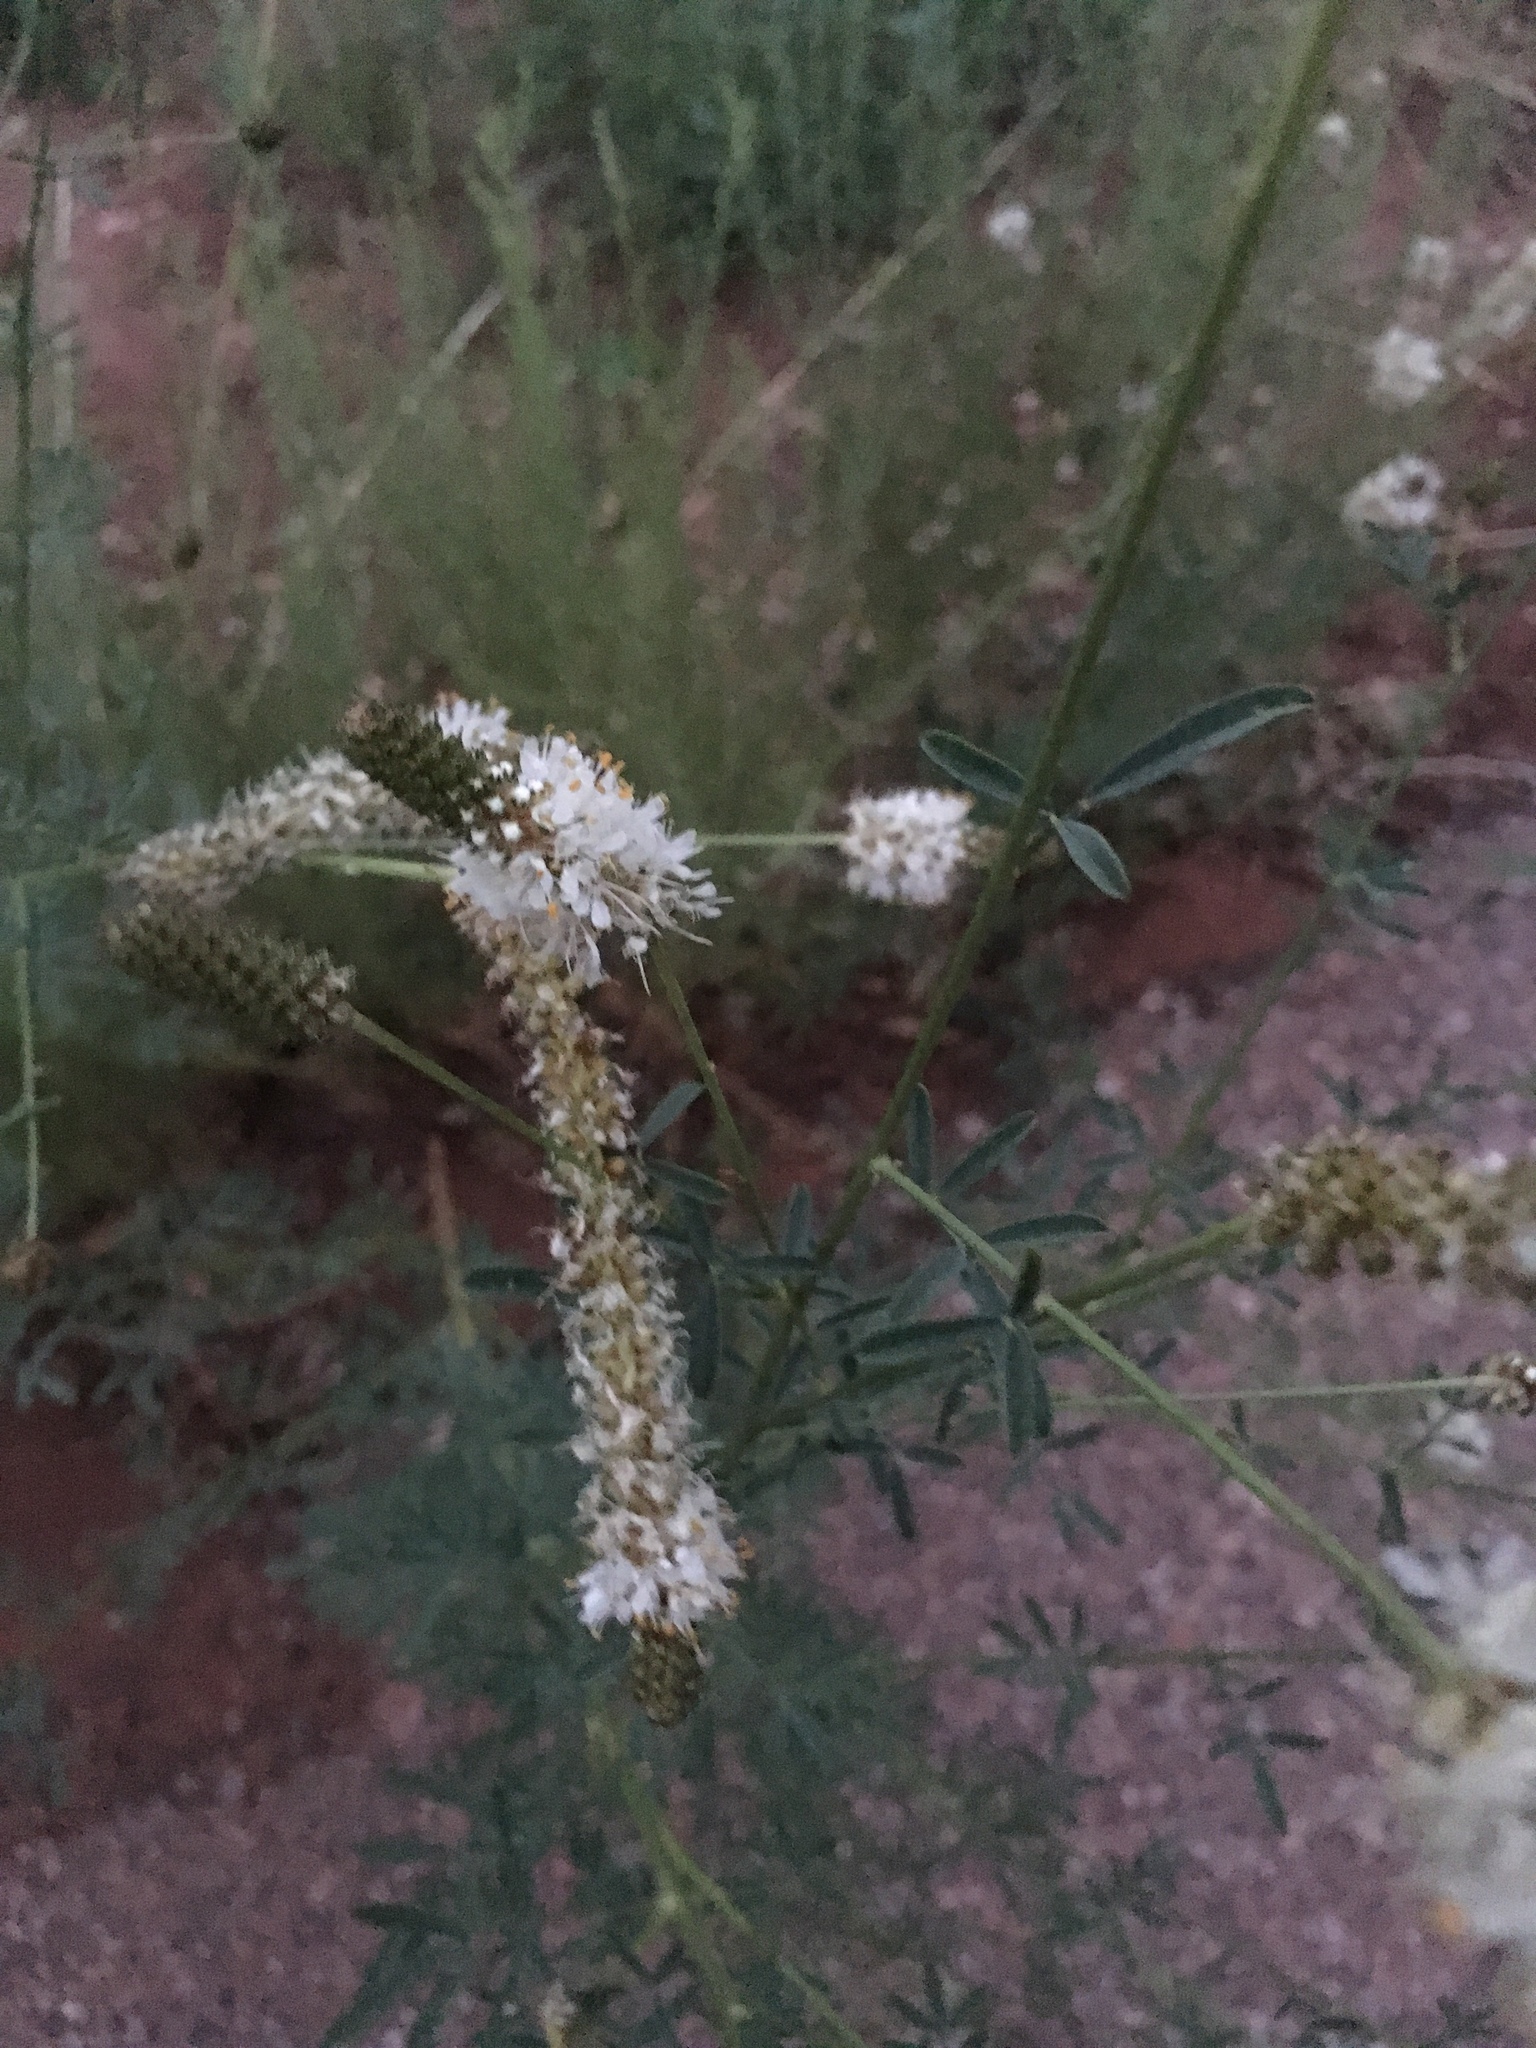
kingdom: Plantae
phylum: Tracheophyta
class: Magnoliopsida
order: Fabales
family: Fabaceae
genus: Dalea
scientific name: Dalea candida
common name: White prairie-clover
